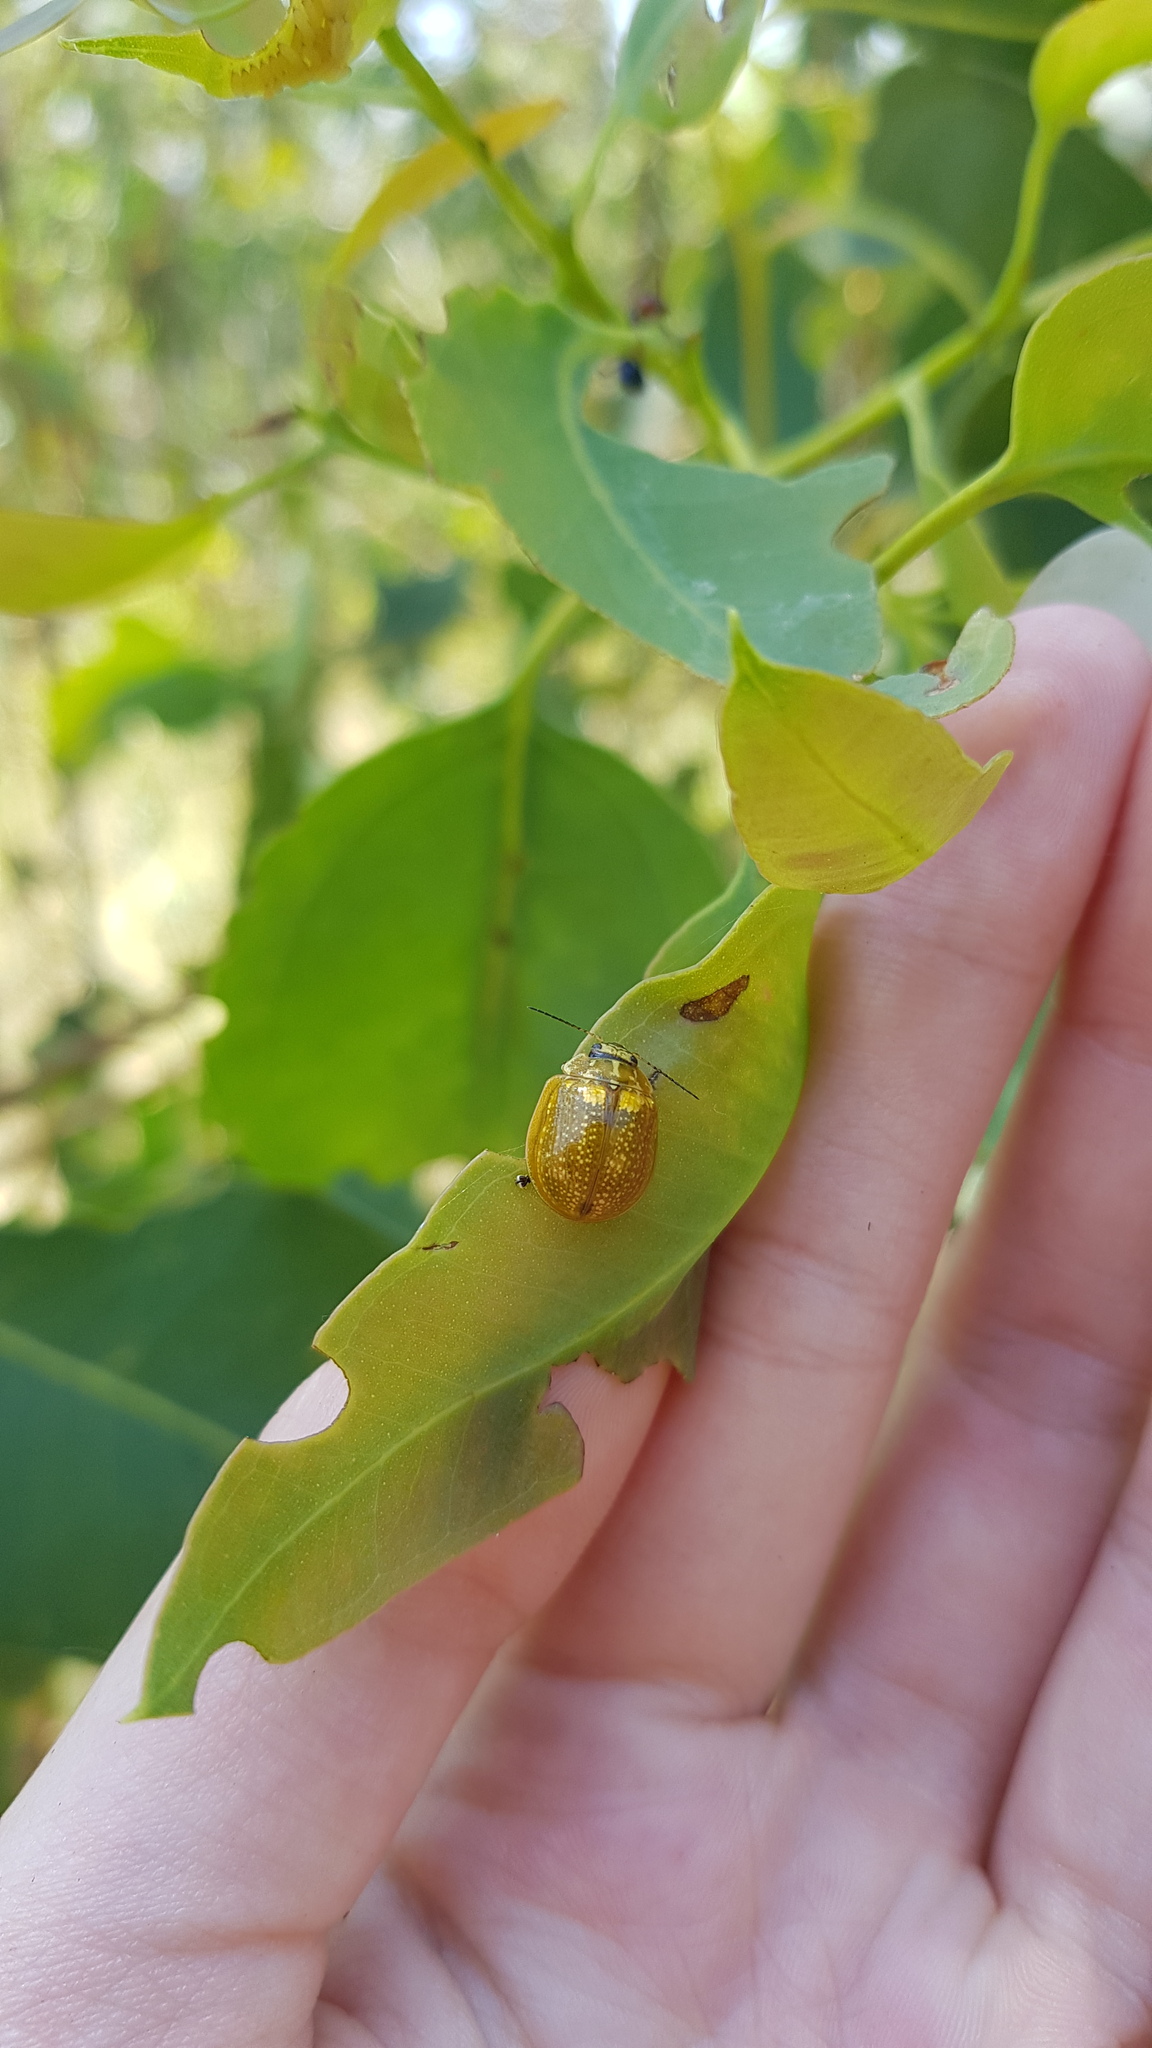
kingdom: Animalia
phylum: Arthropoda
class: Insecta
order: Coleoptera
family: Chrysomelidae
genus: Paropsisterna
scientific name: Paropsisterna cloelia
